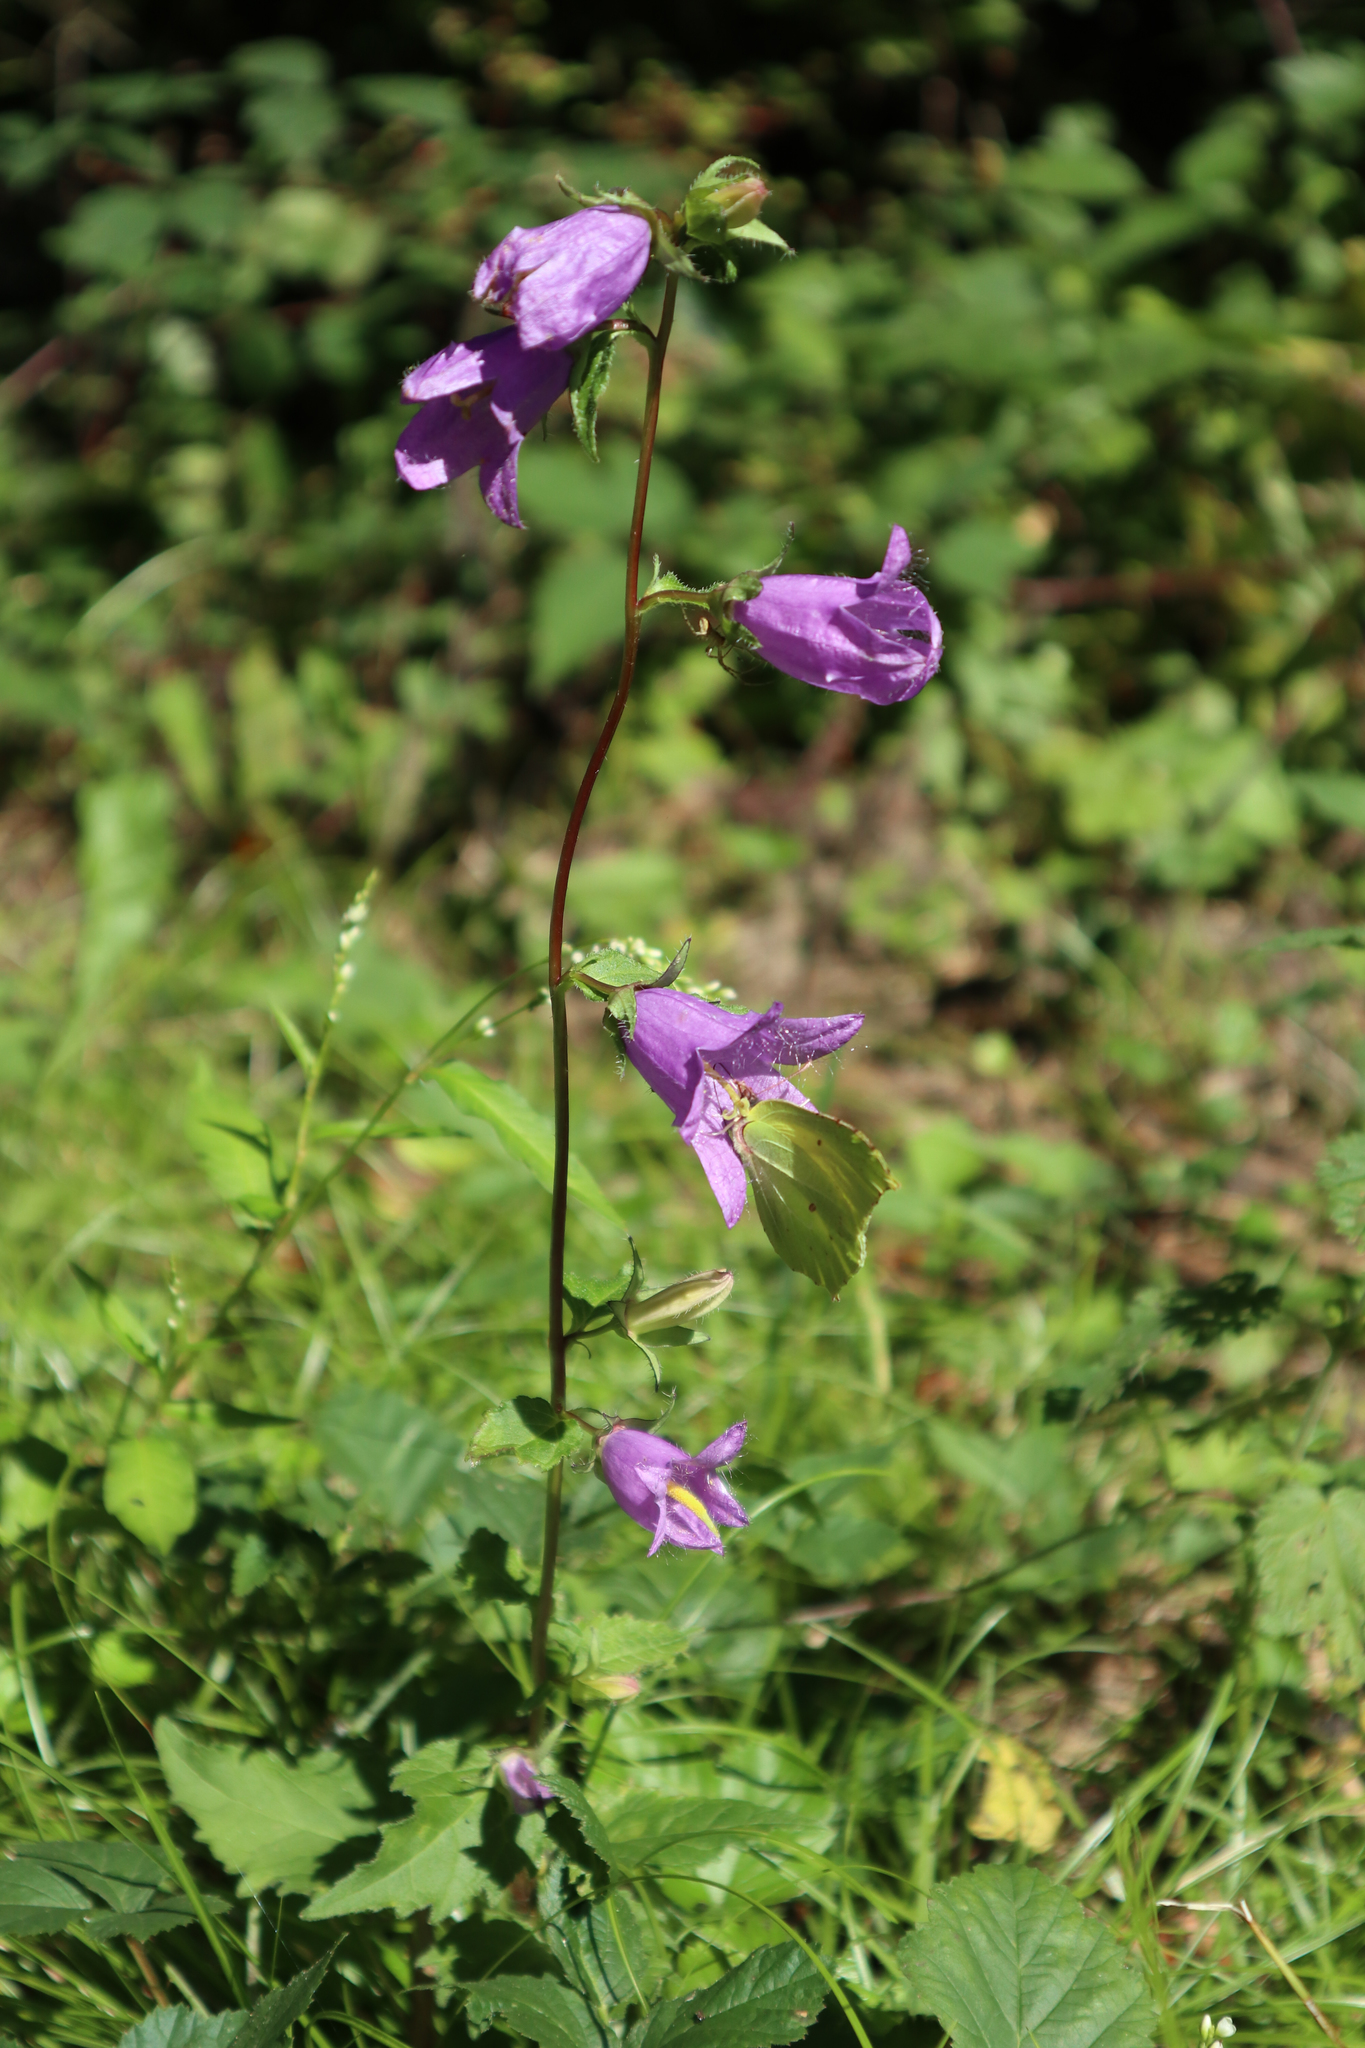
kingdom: Plantae
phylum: Tracheophyta
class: Magnoliopsida
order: Asterales
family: Campanulaceae
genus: Campanula
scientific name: Campanula trachelium
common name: Nettle-leaved bellflower
